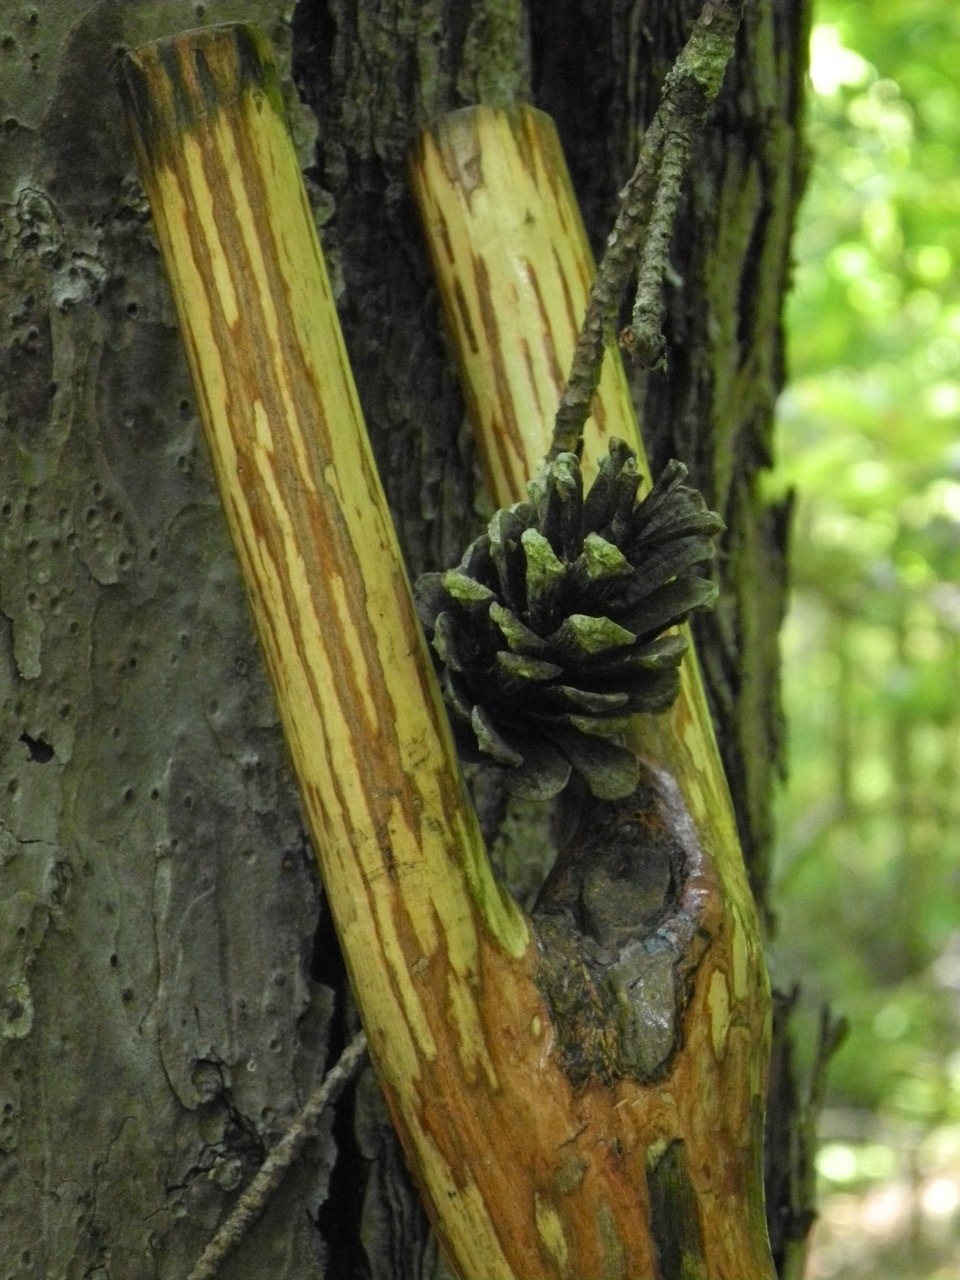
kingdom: Plantae
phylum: Tracheophyta
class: Pinopsida
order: Pinales
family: Pinaceae
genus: Pinus
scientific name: Pinus virginiana
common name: Scrub pine
